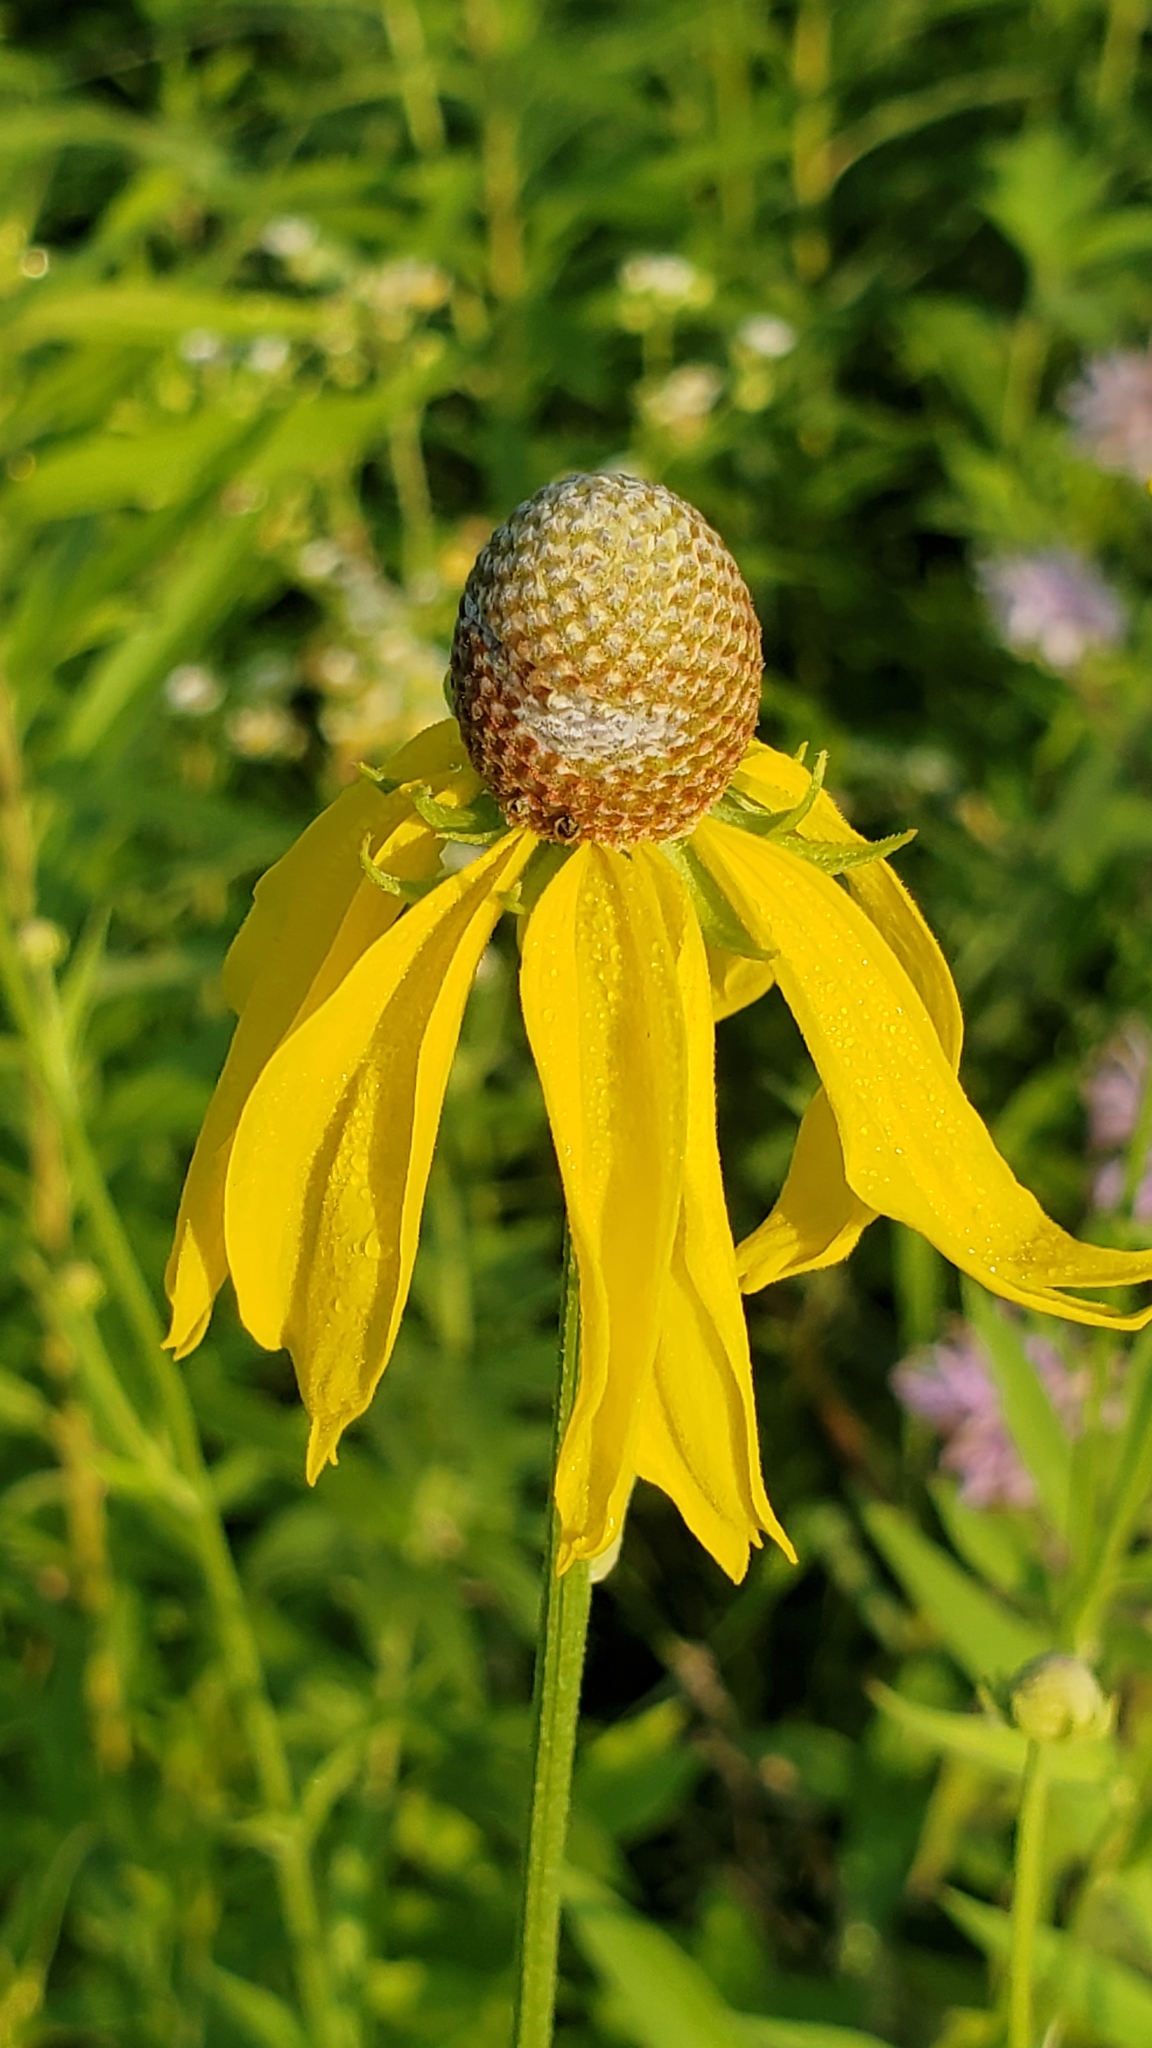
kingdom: Plantae
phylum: Tracheophyta
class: Magnoliopsida
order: Asterales
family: Asteraceae
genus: Ratibida
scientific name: Ratibida pinnata
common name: Drooping prairie-coneflower
